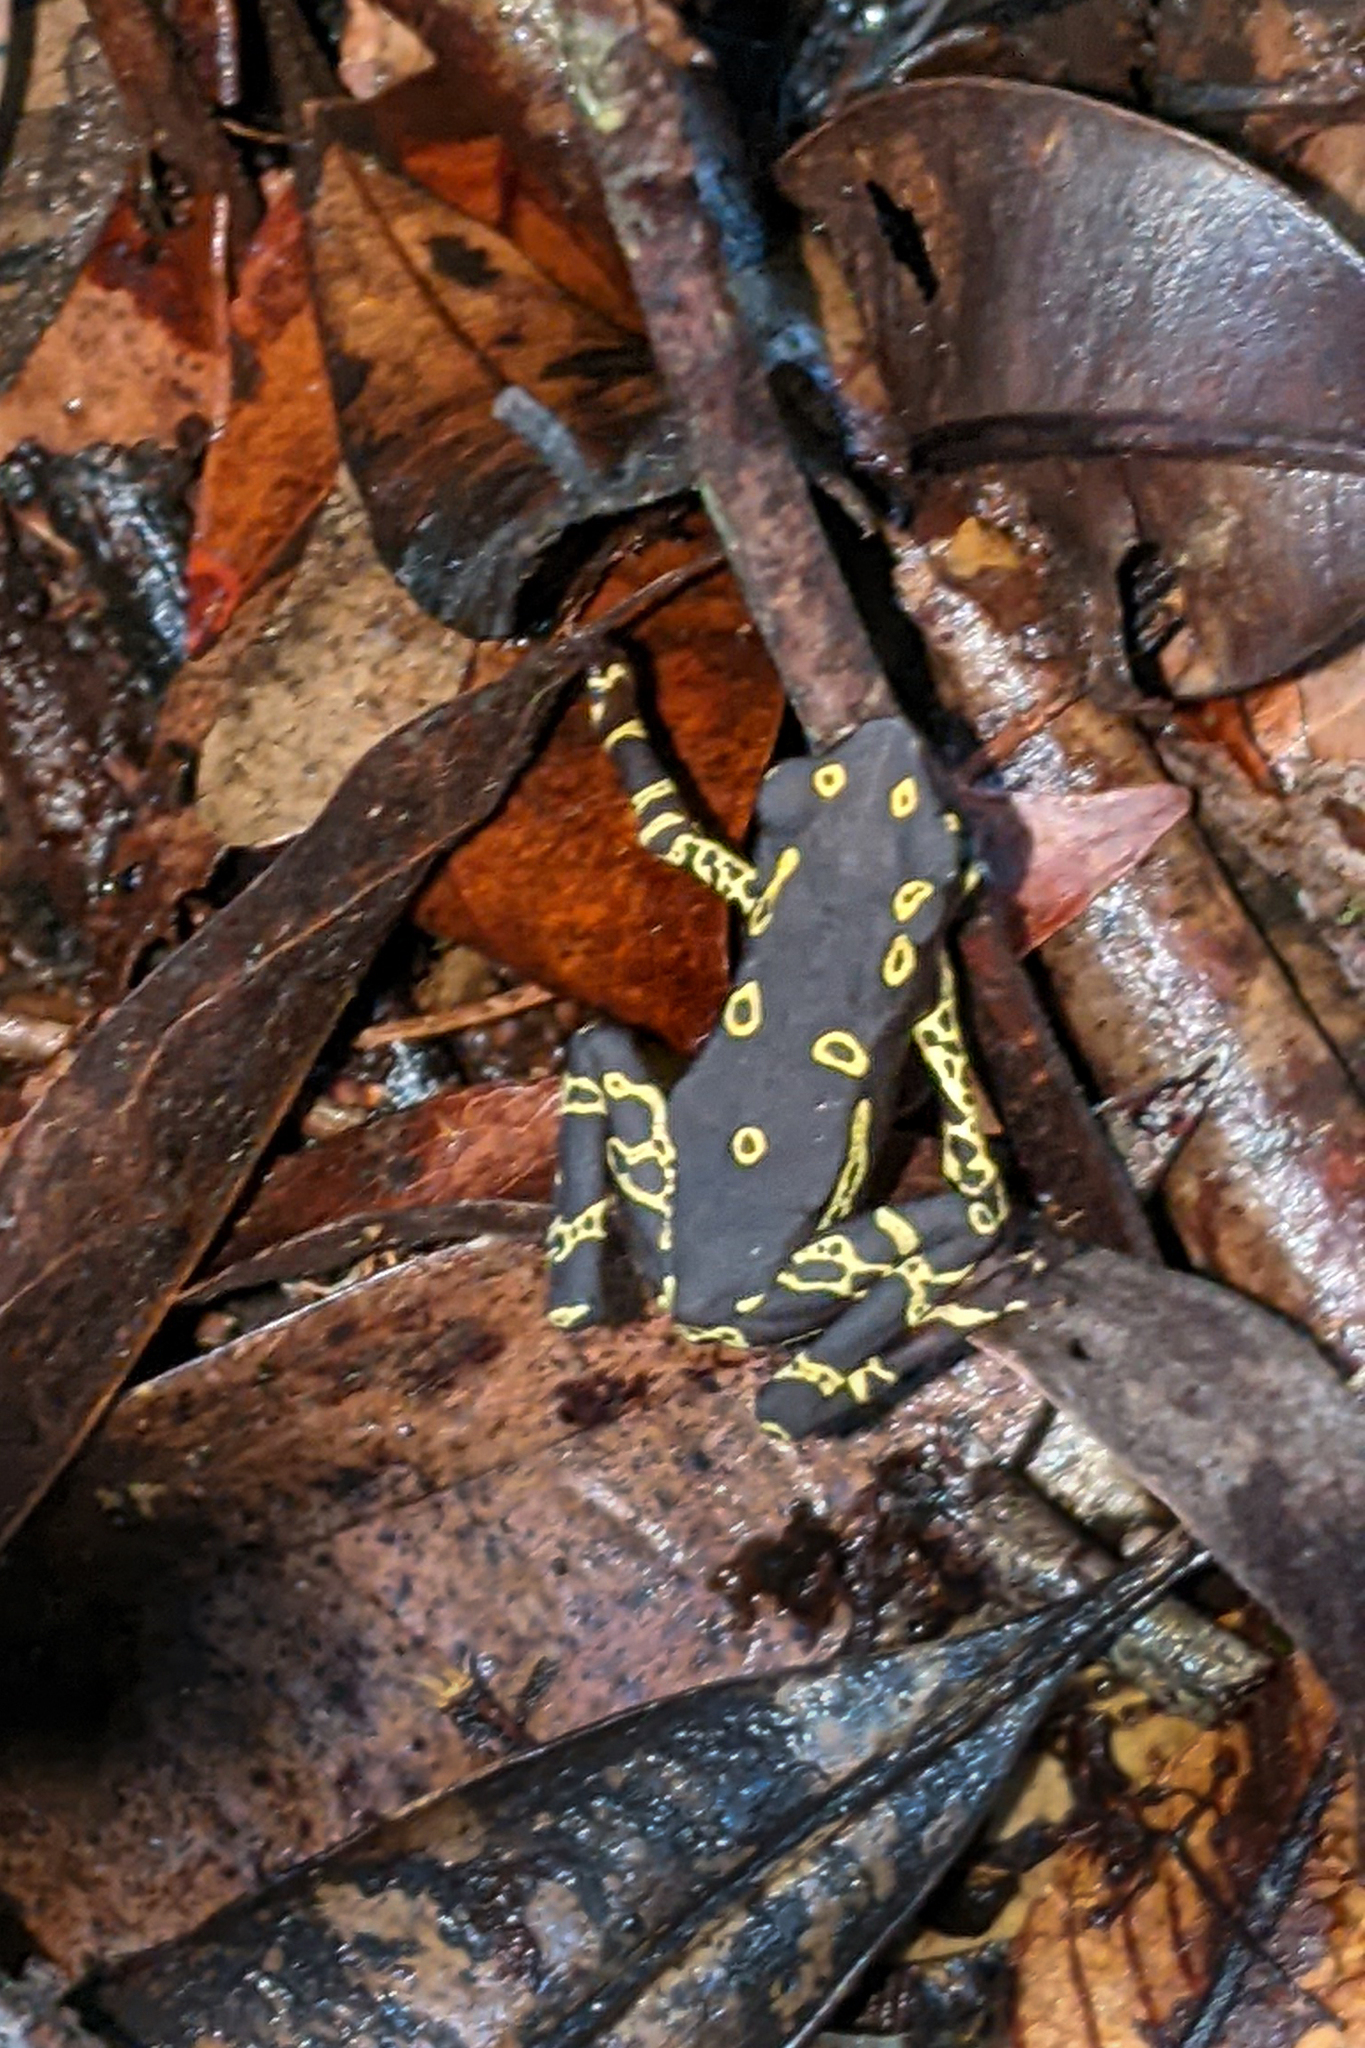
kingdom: Animalia
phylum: Chordata
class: Amphibia
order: Anura
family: Bufonidae
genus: Atelopus
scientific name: Atelopus hoogmoedi
